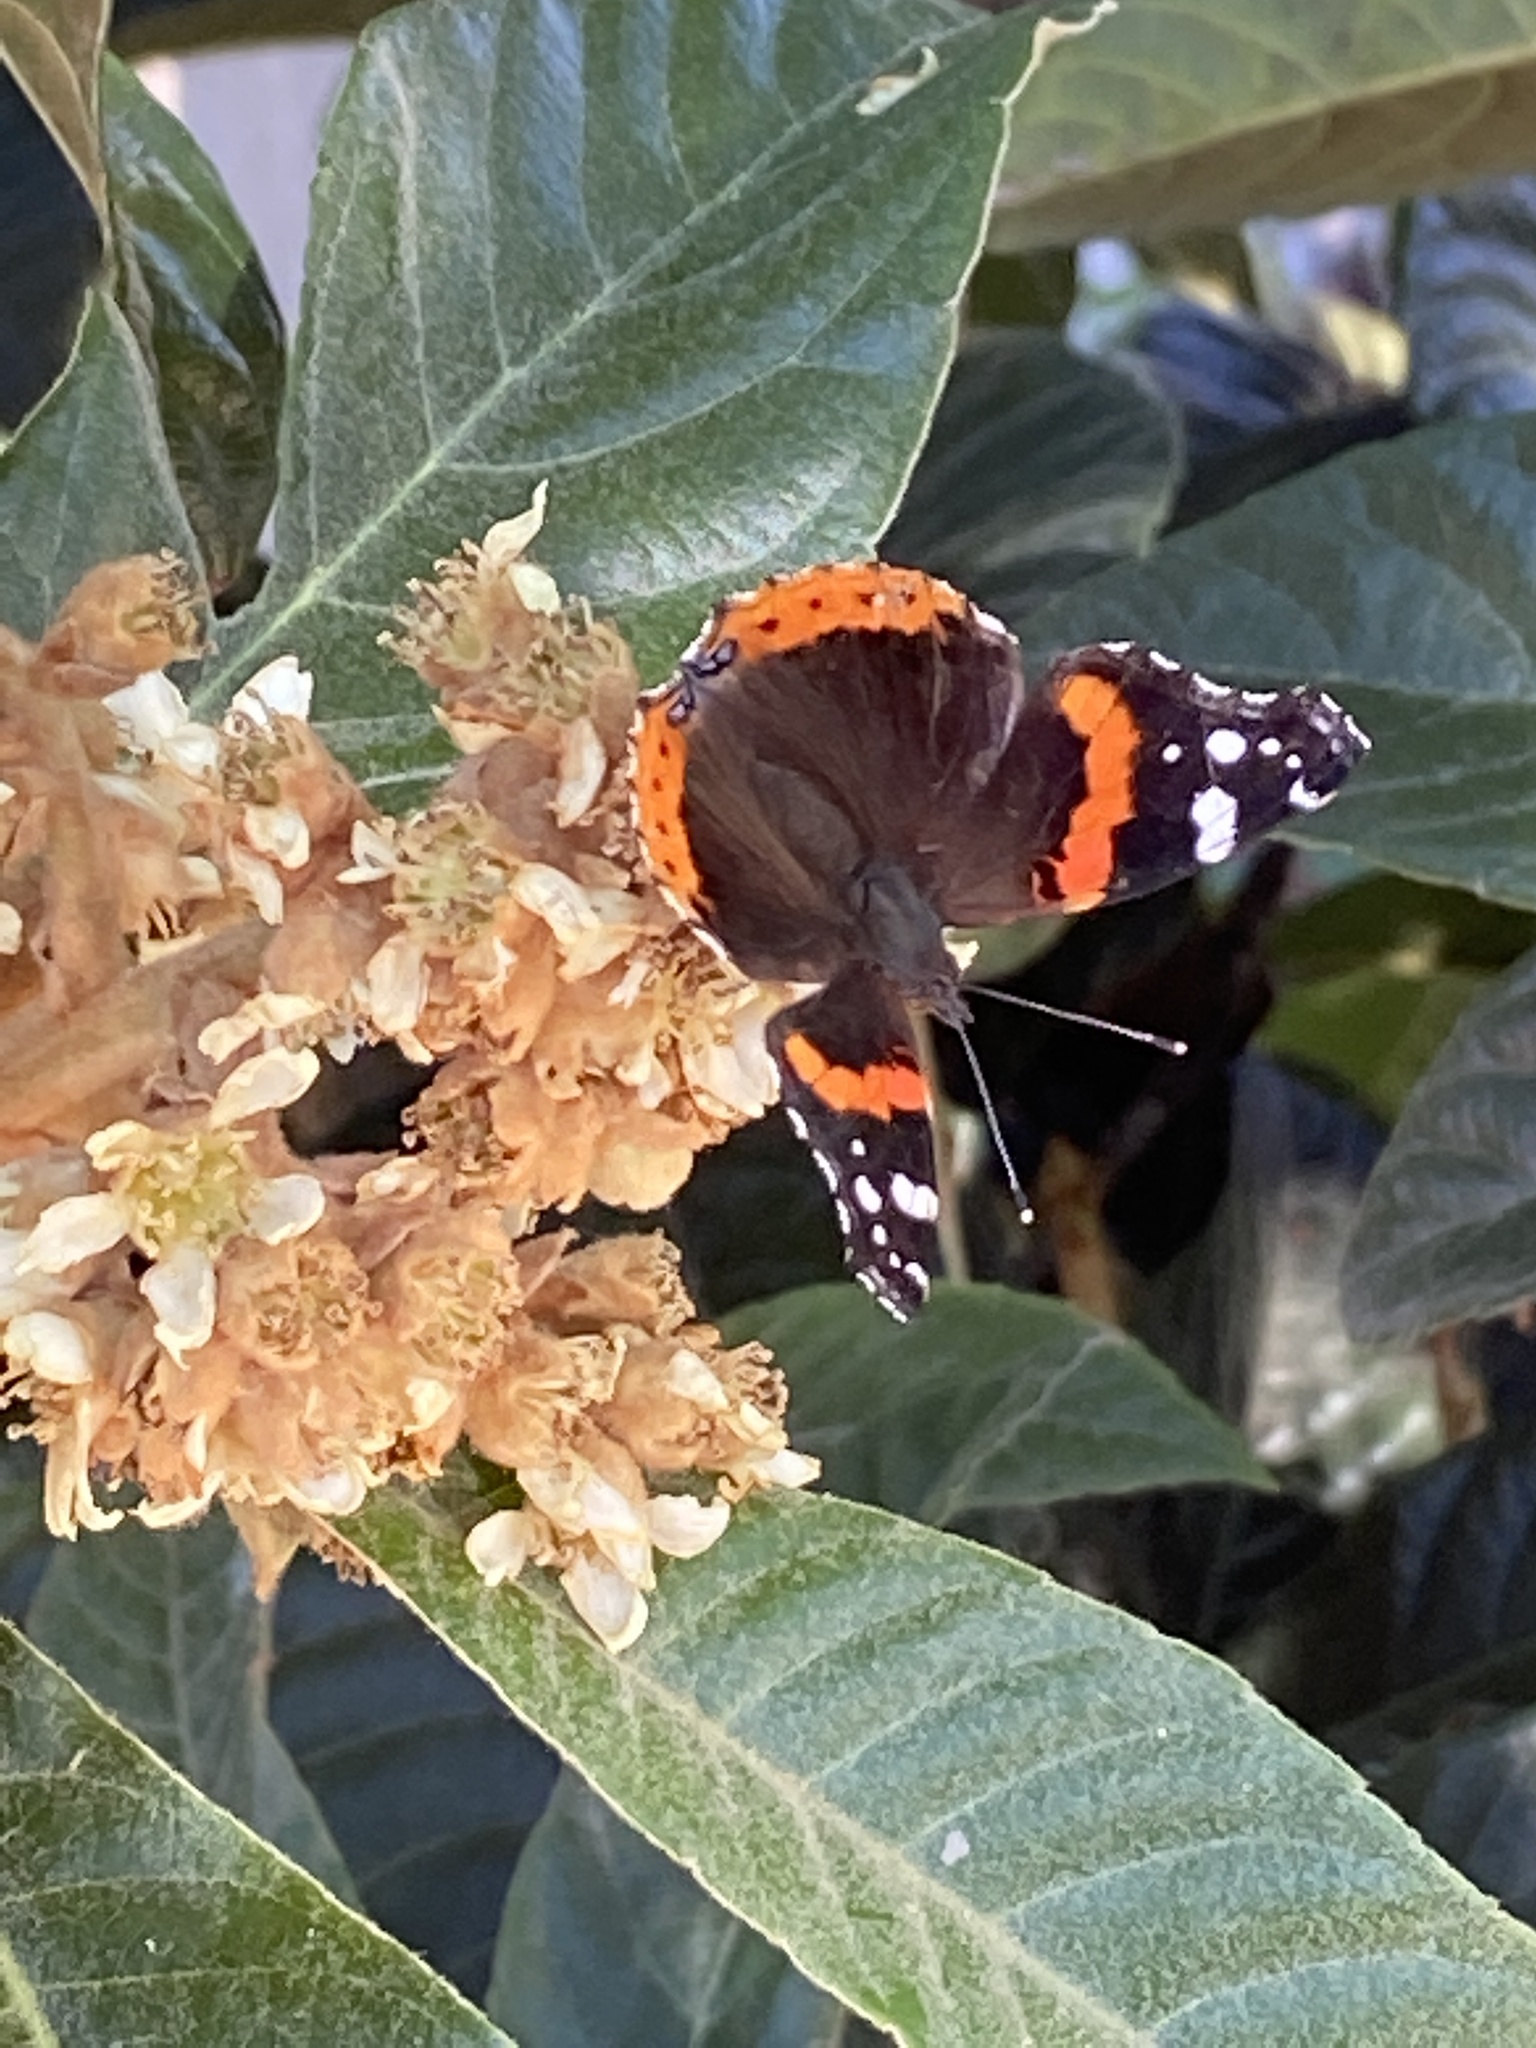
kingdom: Animalia
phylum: Arthropoda
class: Insecta
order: Lepidoptera
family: Nymphalidae
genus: Vanessa
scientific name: Vanessa atalanta
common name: Red admiral
